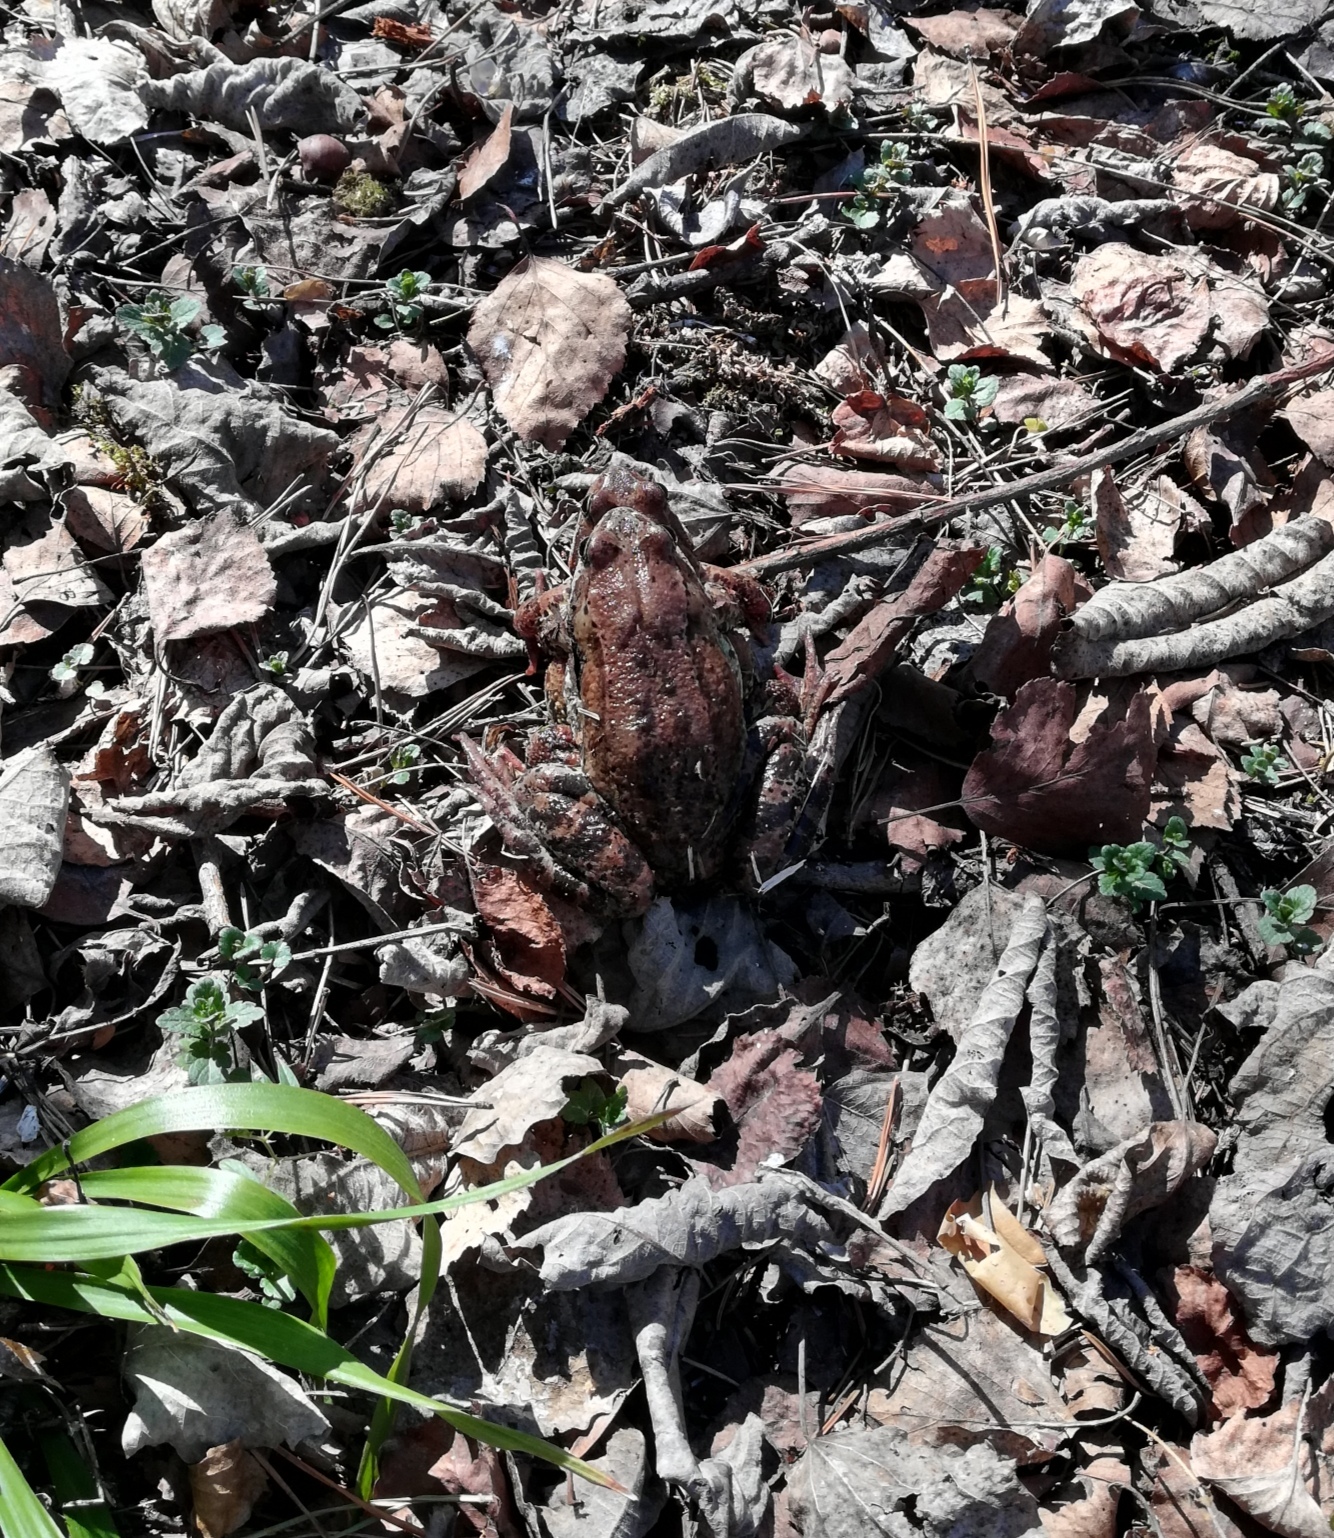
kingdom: Animalia
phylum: Chordata
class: Amphibia
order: Anura
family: Ranidae
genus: Rana
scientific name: Rana temporaria
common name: Common frog
